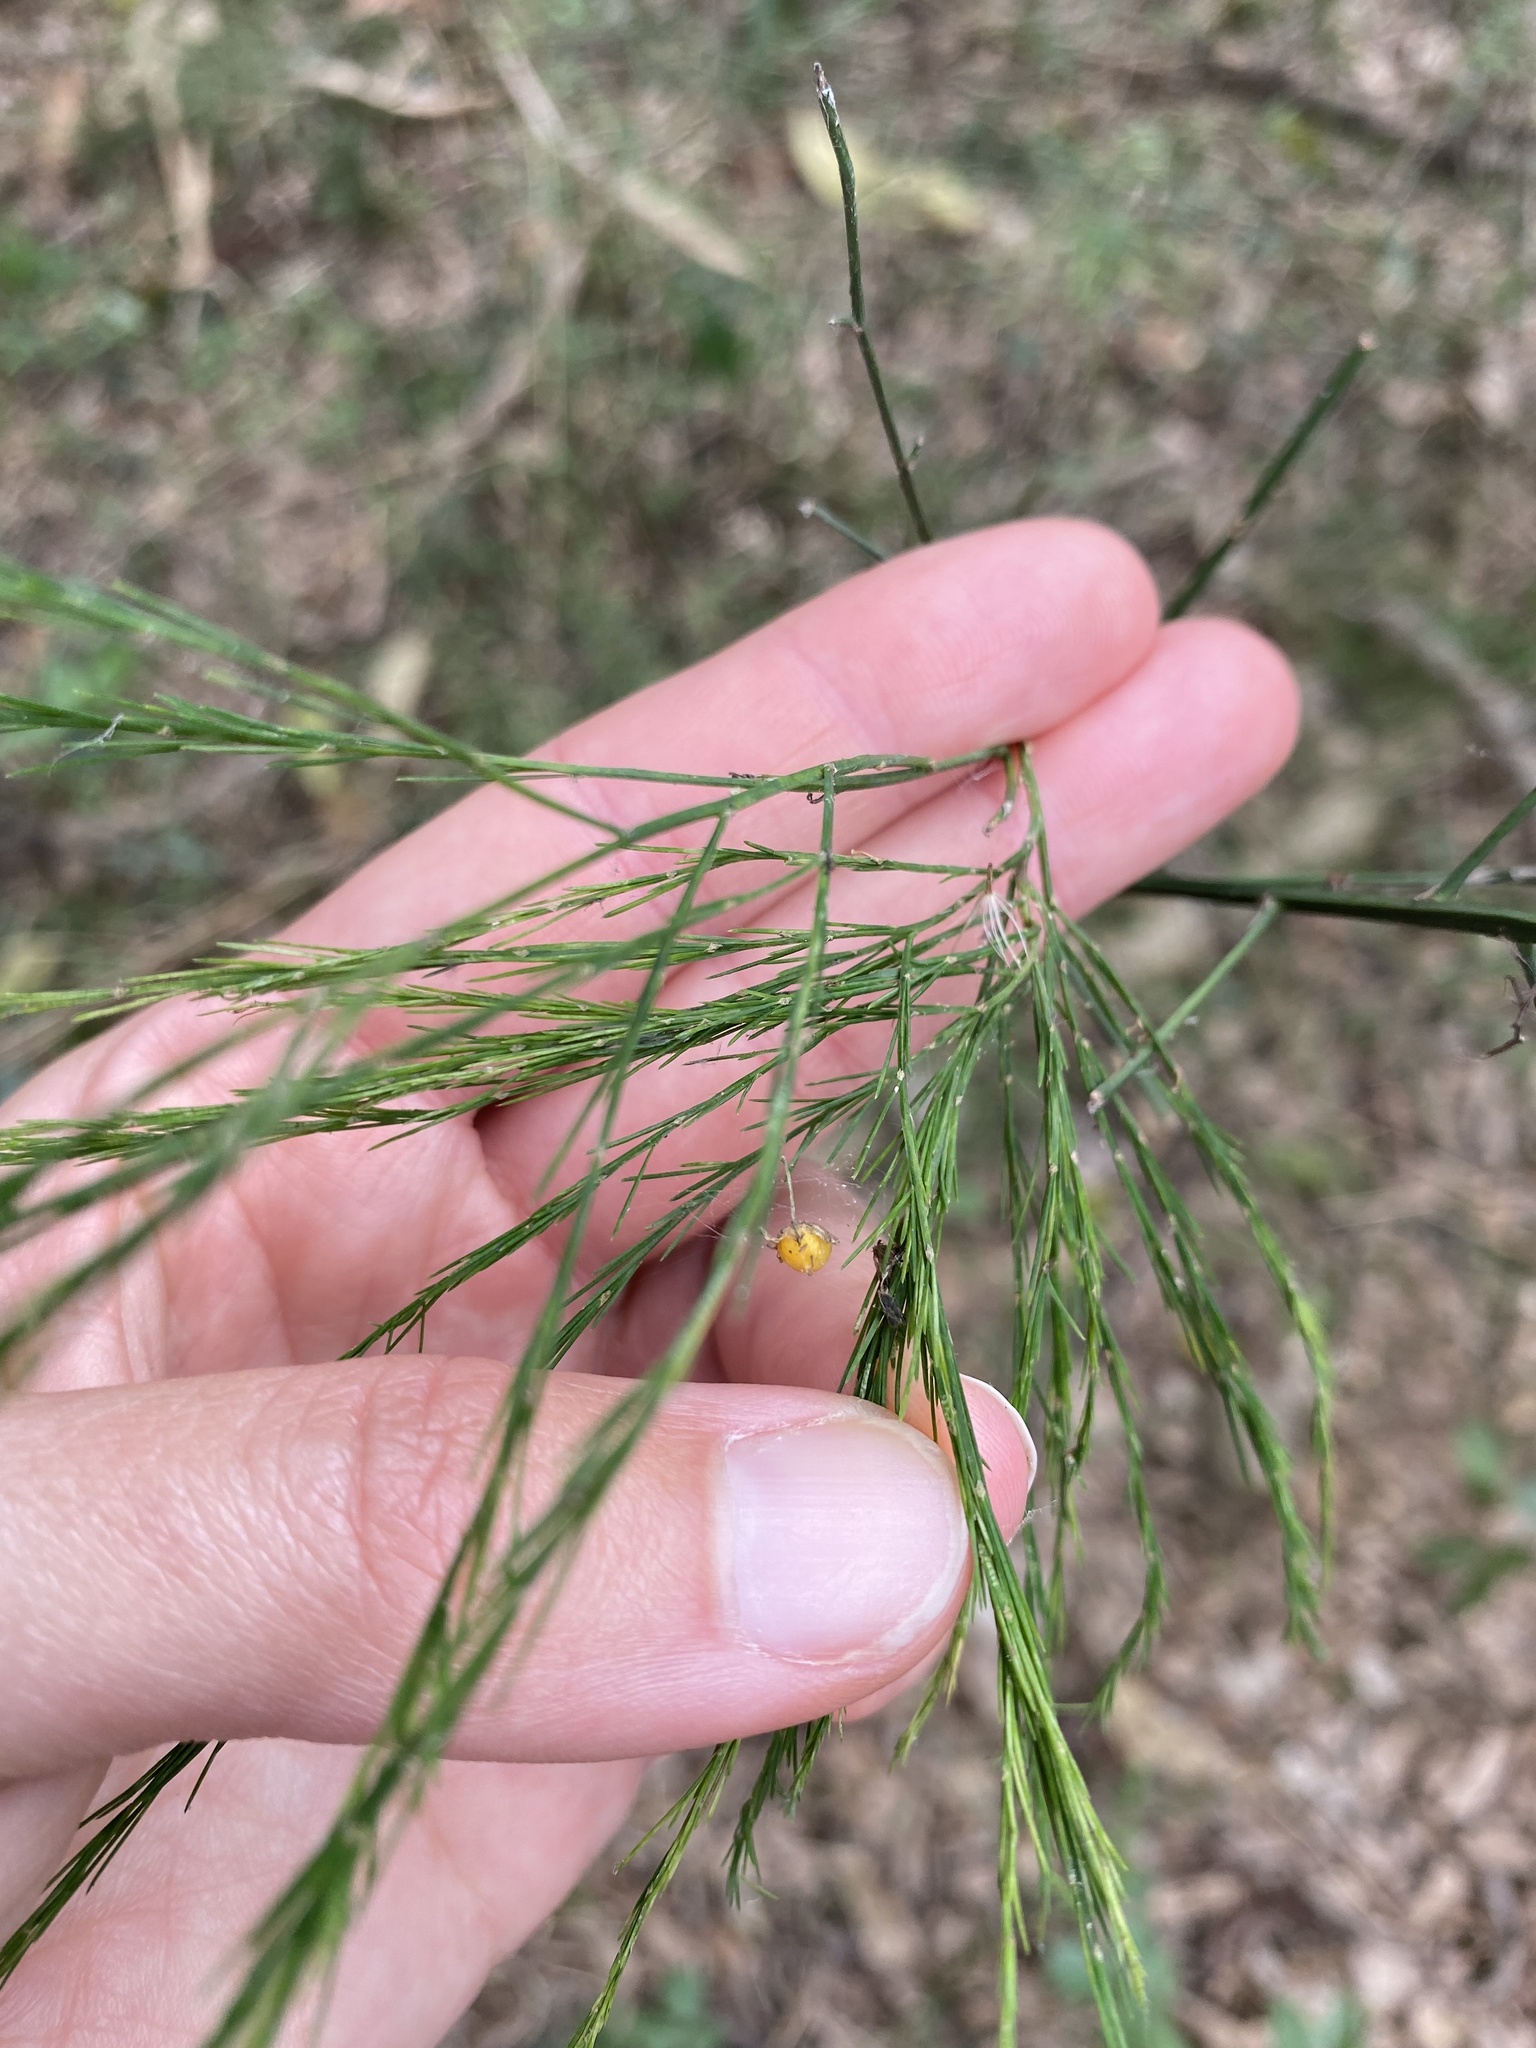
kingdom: Plantae
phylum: Tracheophyta
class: Liliopsida
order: Asparagales
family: Asparagaceae
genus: Asparagus
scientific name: Asparagus virgatus
